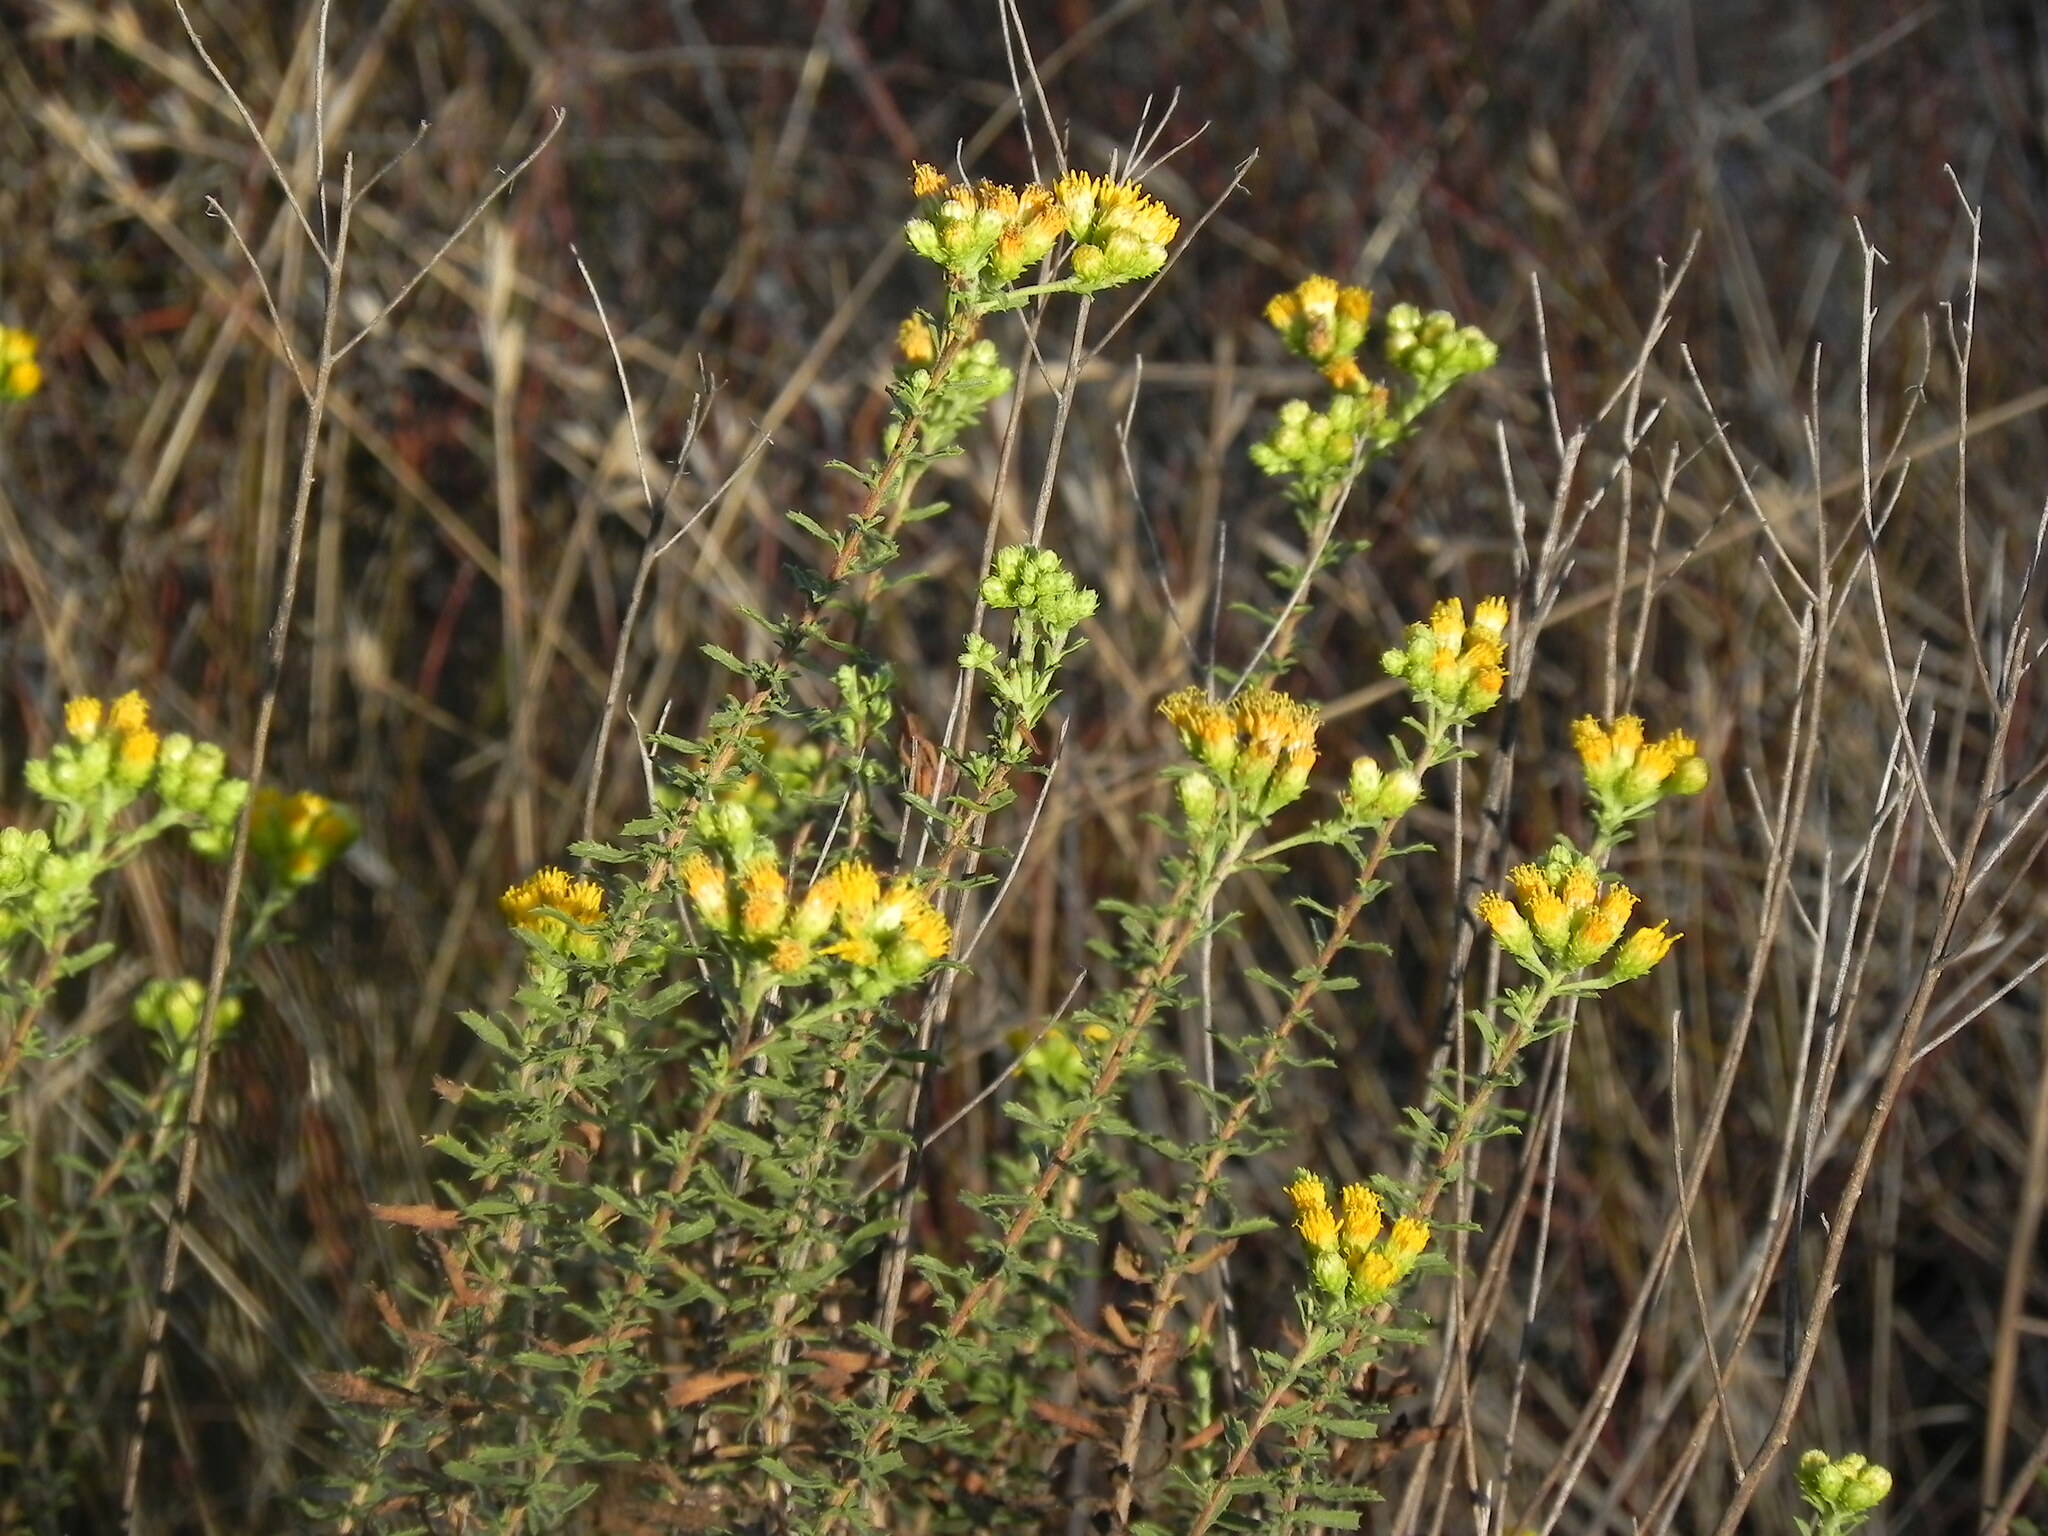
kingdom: Plantae
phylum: Tracheophyta
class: Magnoliopsida
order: Asterales
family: Asteraceae
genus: Isocoma
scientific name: Isocoma menziesii
